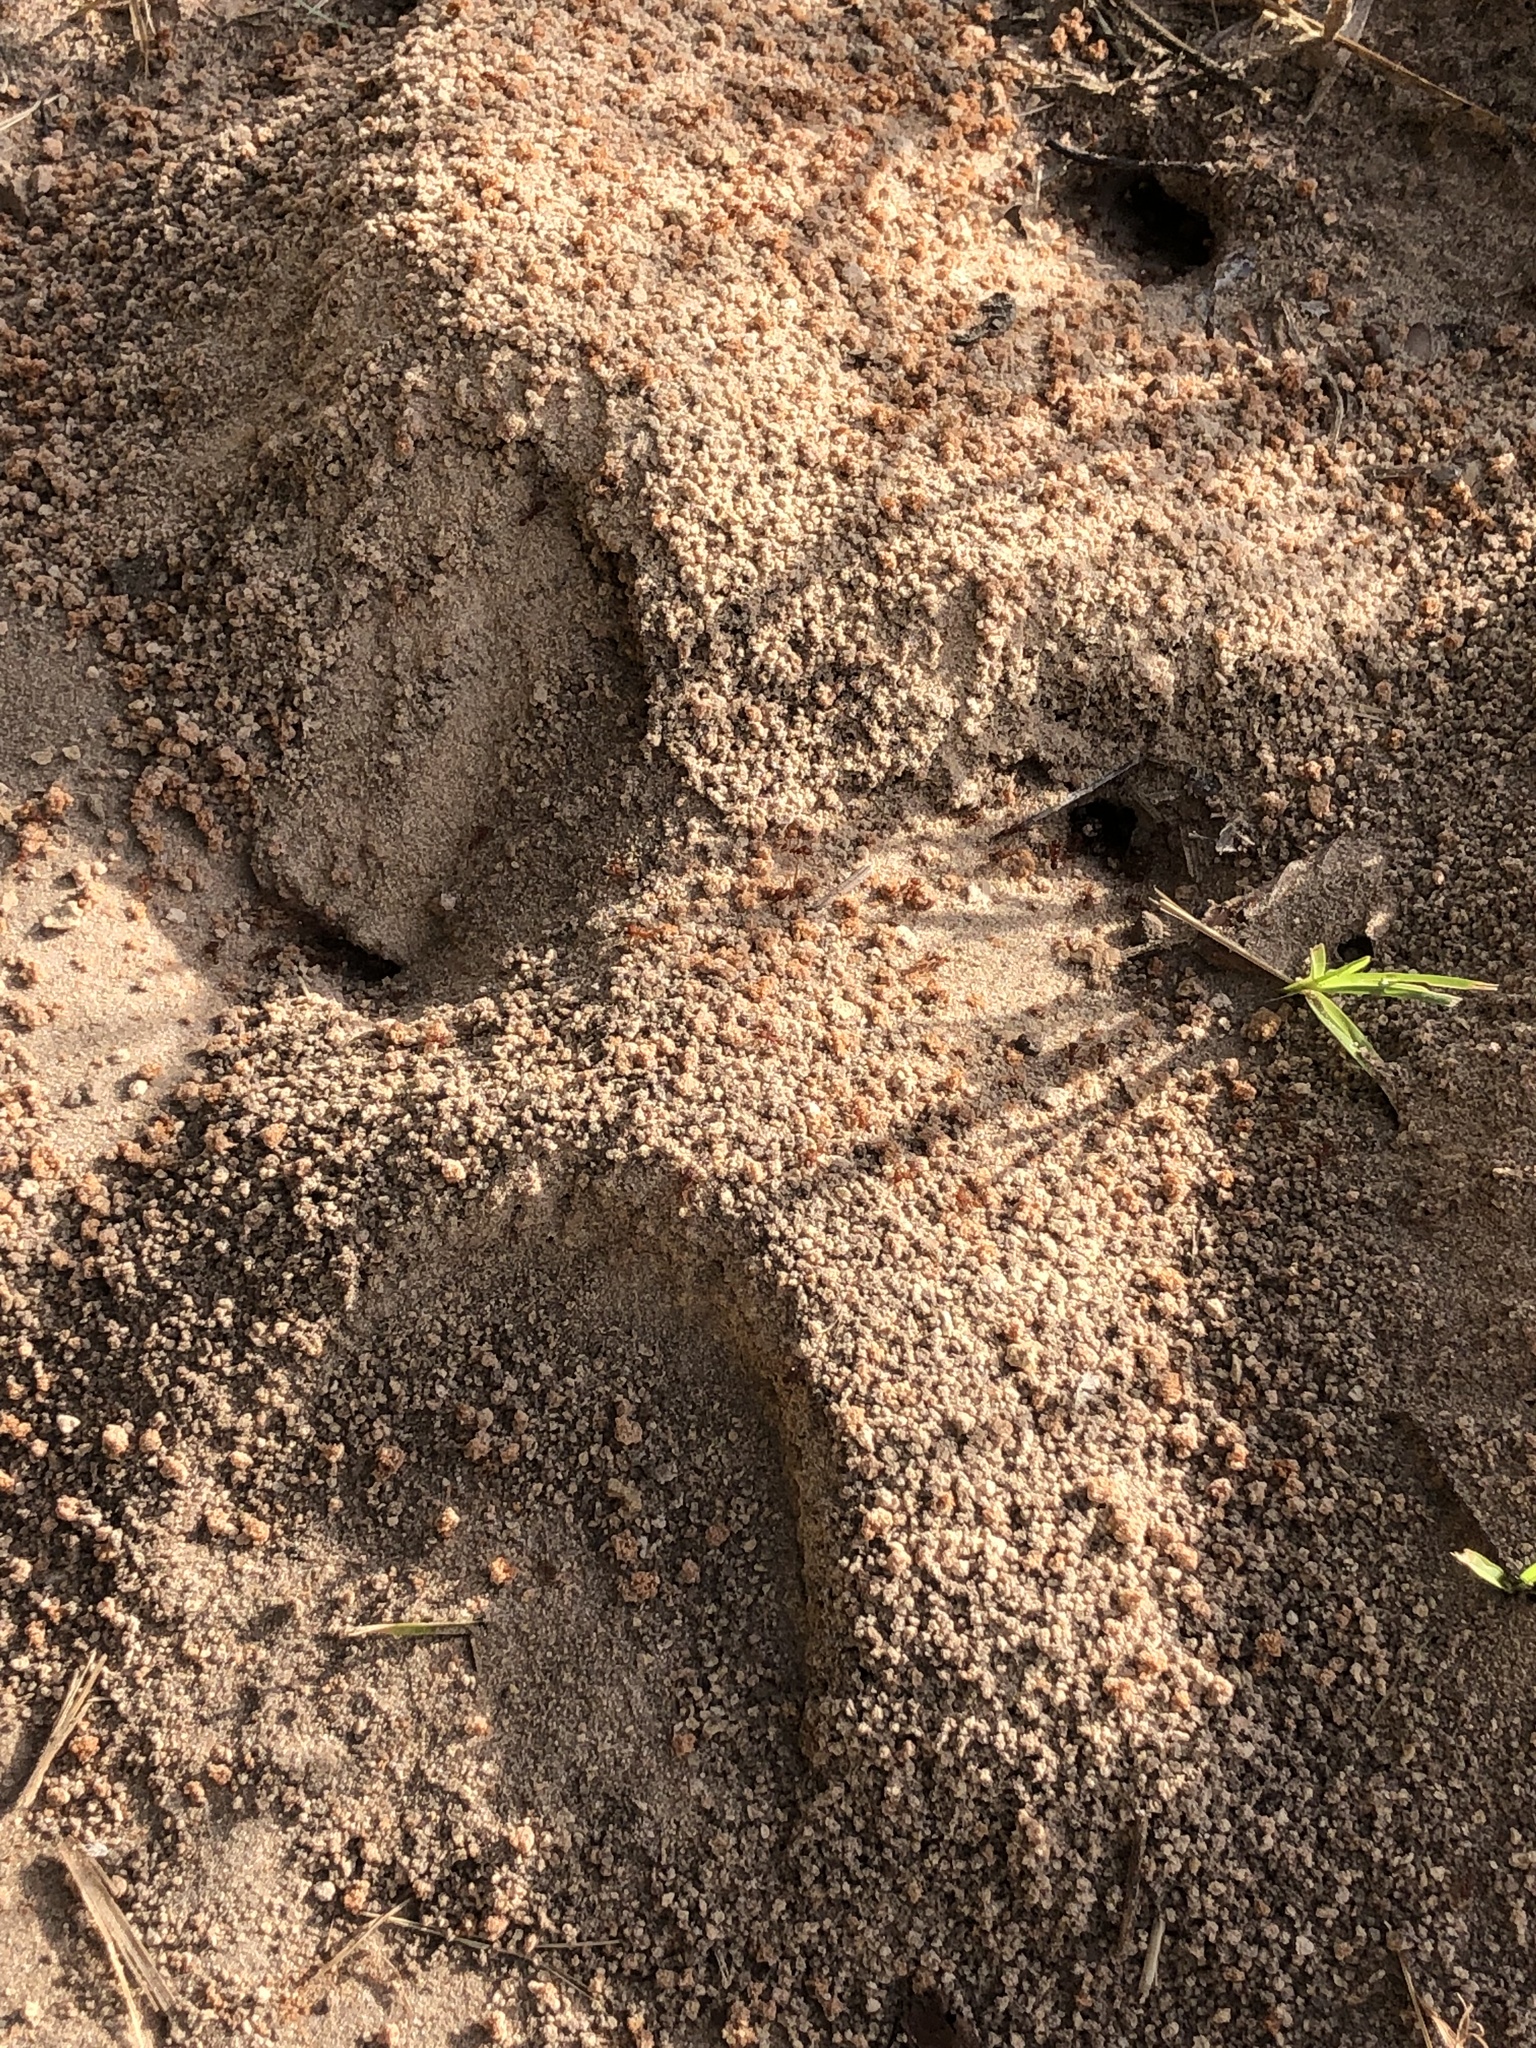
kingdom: Animalia
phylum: Arthropoda
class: Insecta
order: Hymenoptera
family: Formicidae
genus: Atta
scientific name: Atta texana
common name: Texas leafcutting ant
